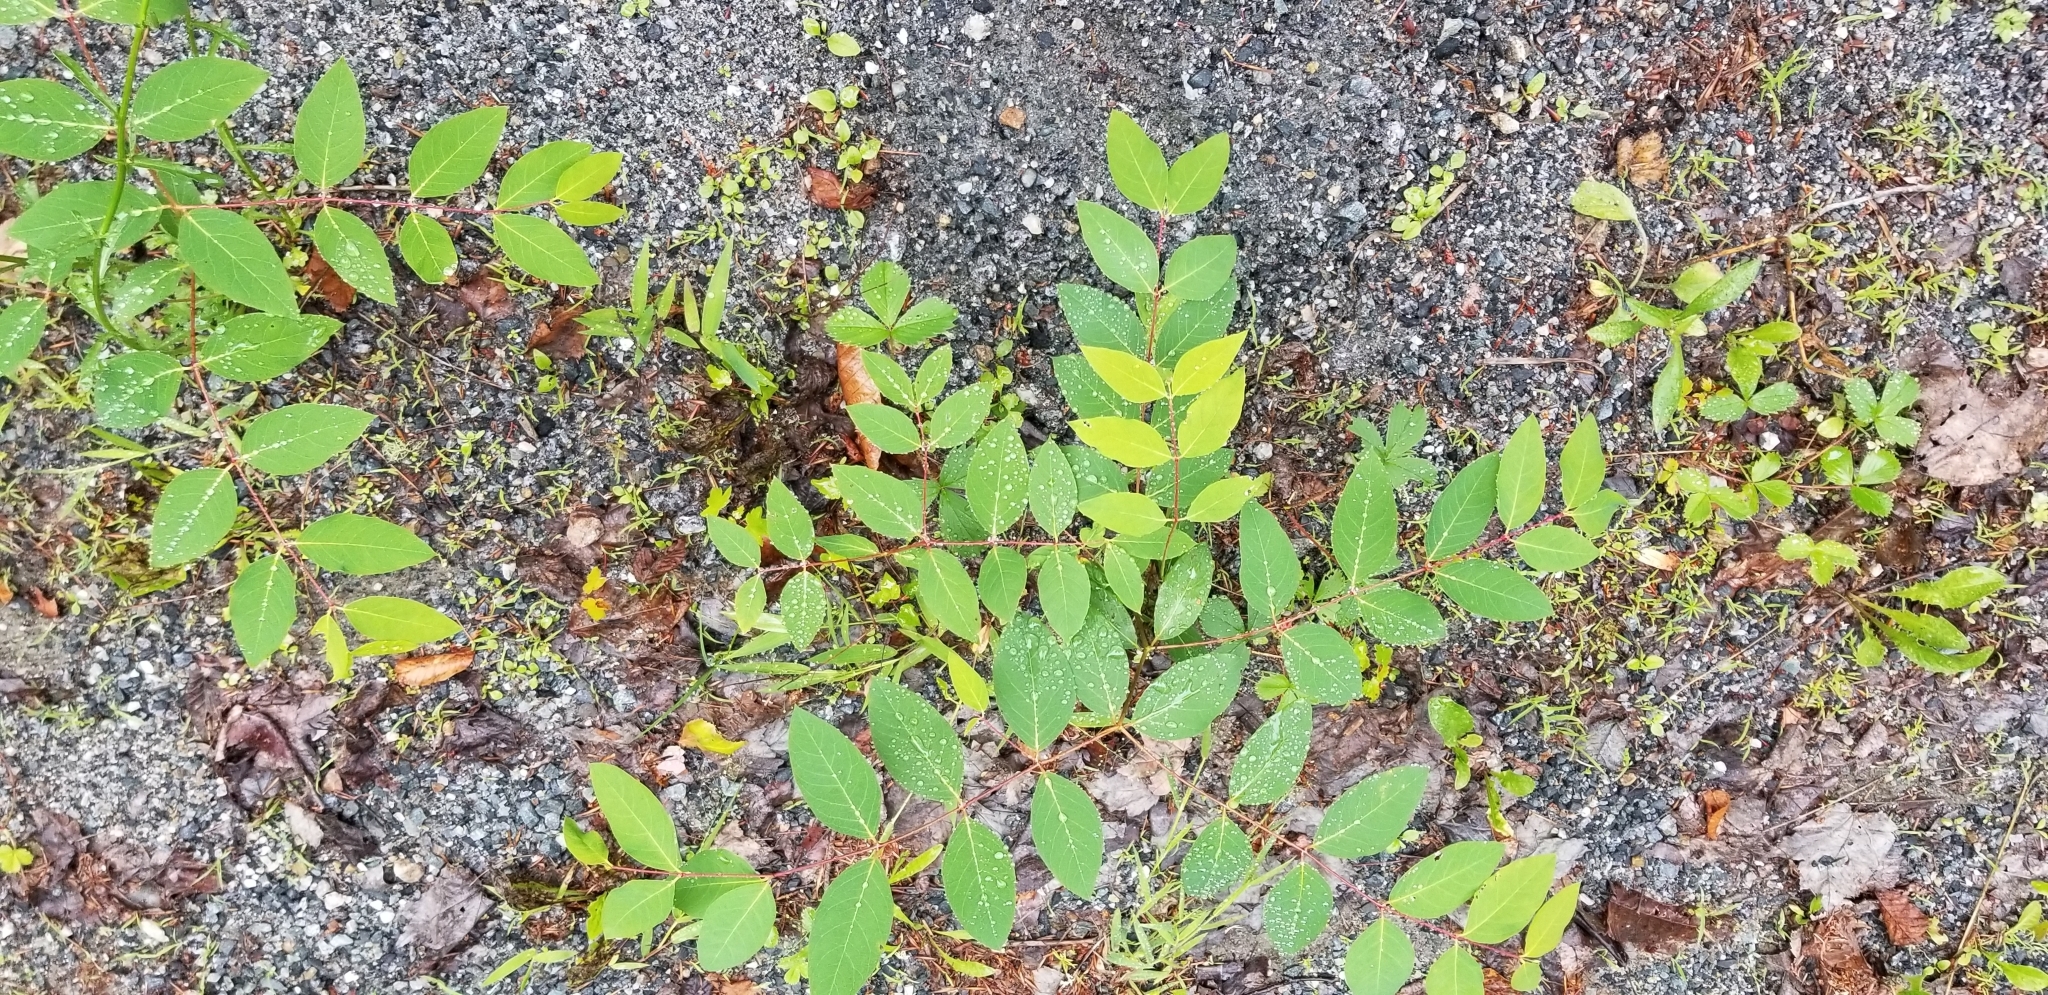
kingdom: Plantae
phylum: Tracheophyta
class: Magnoliopsida
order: Gentianales
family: Apocynaceae
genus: Apocynum
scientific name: Apocynum androsaemifolium
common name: Spreading dogbane
